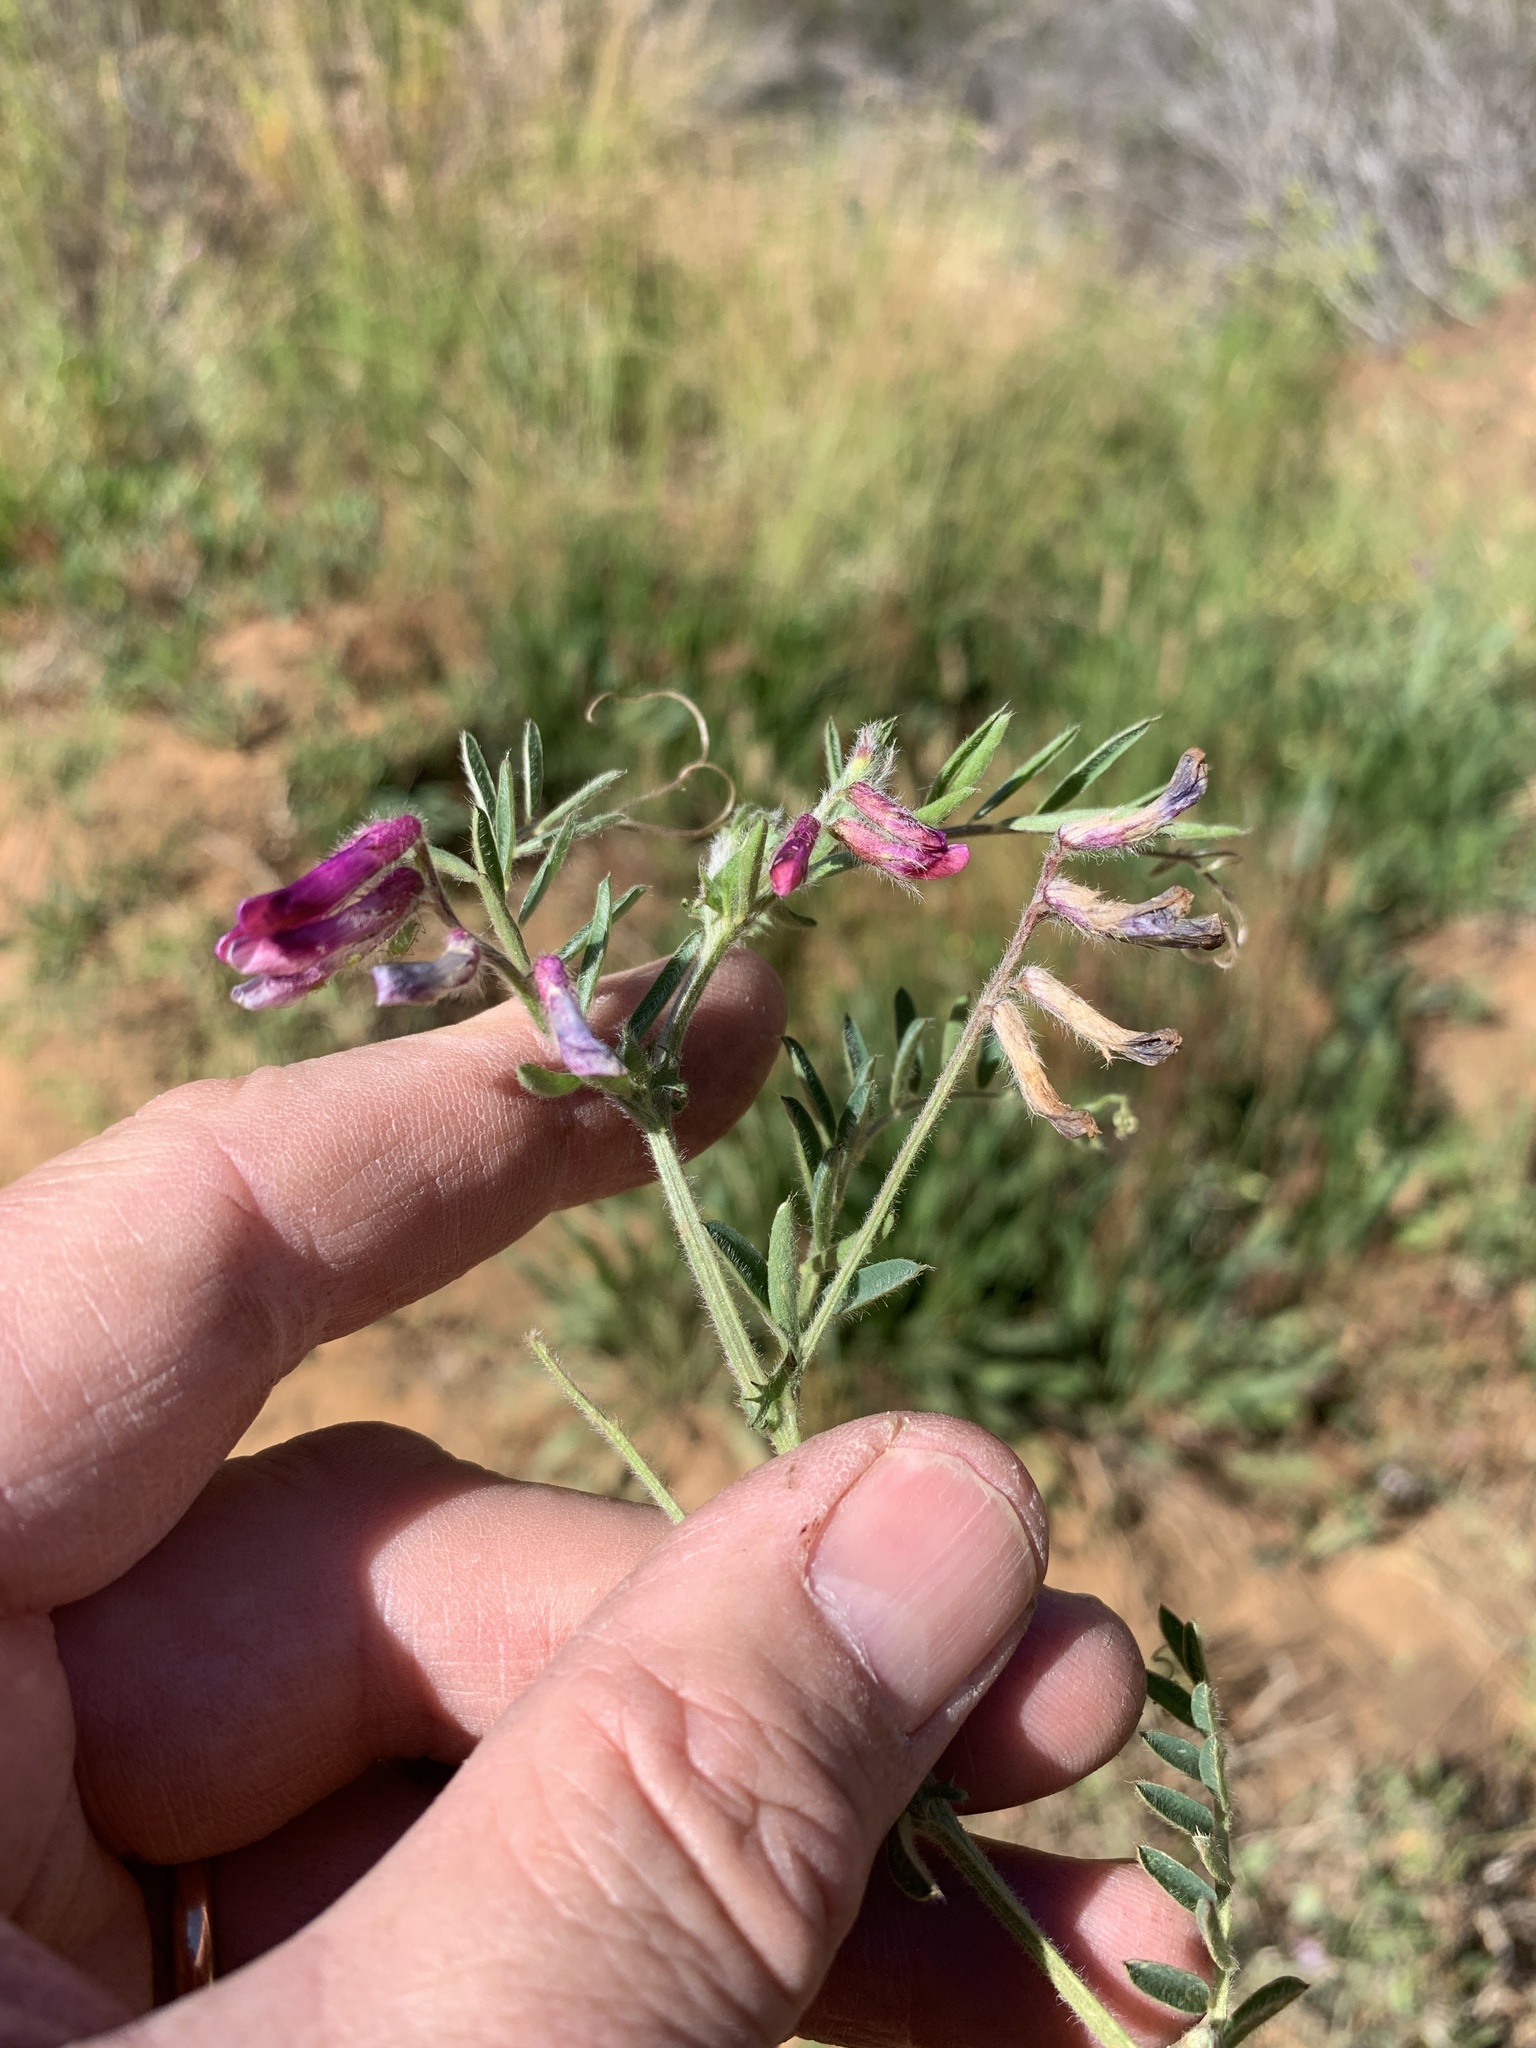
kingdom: Plantae
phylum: Tracheophyta
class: Magnoliopsida
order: Fabales
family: Fabaceae
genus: Vicia
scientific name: Vicia benghalensis
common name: Purple vetch
